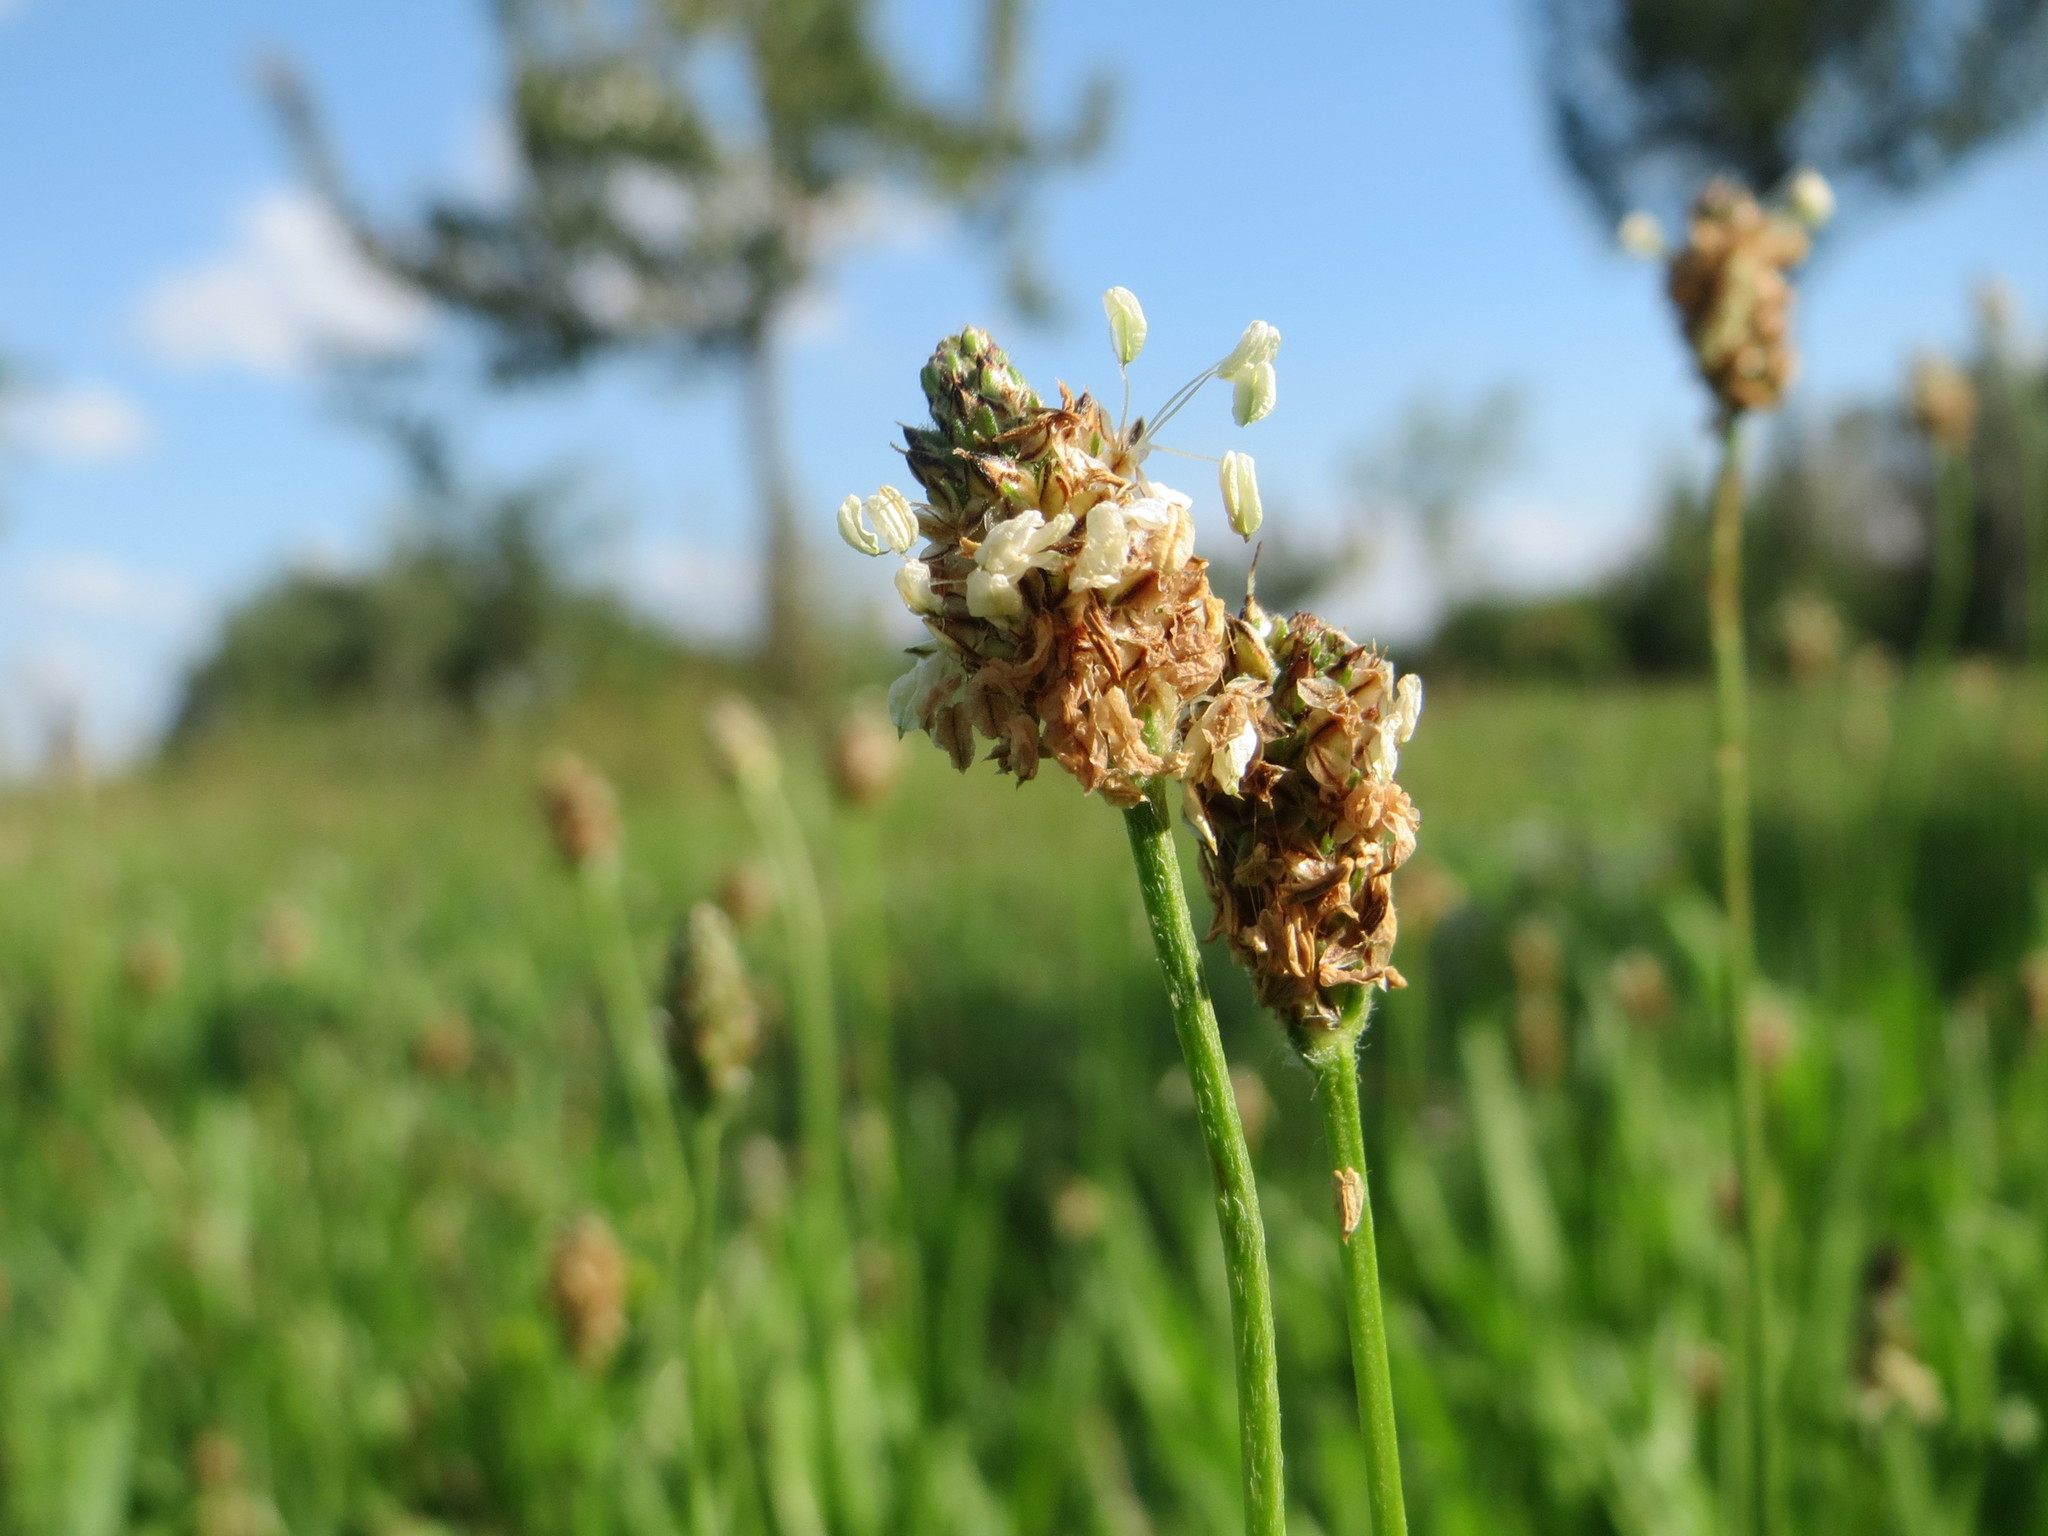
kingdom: Plantae
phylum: Tracheophyta
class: Magnoliopsida
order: Lamiales
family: Plantaginaceae
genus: Plantago
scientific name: Plantago lanceolata
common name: Ribwort plantain
